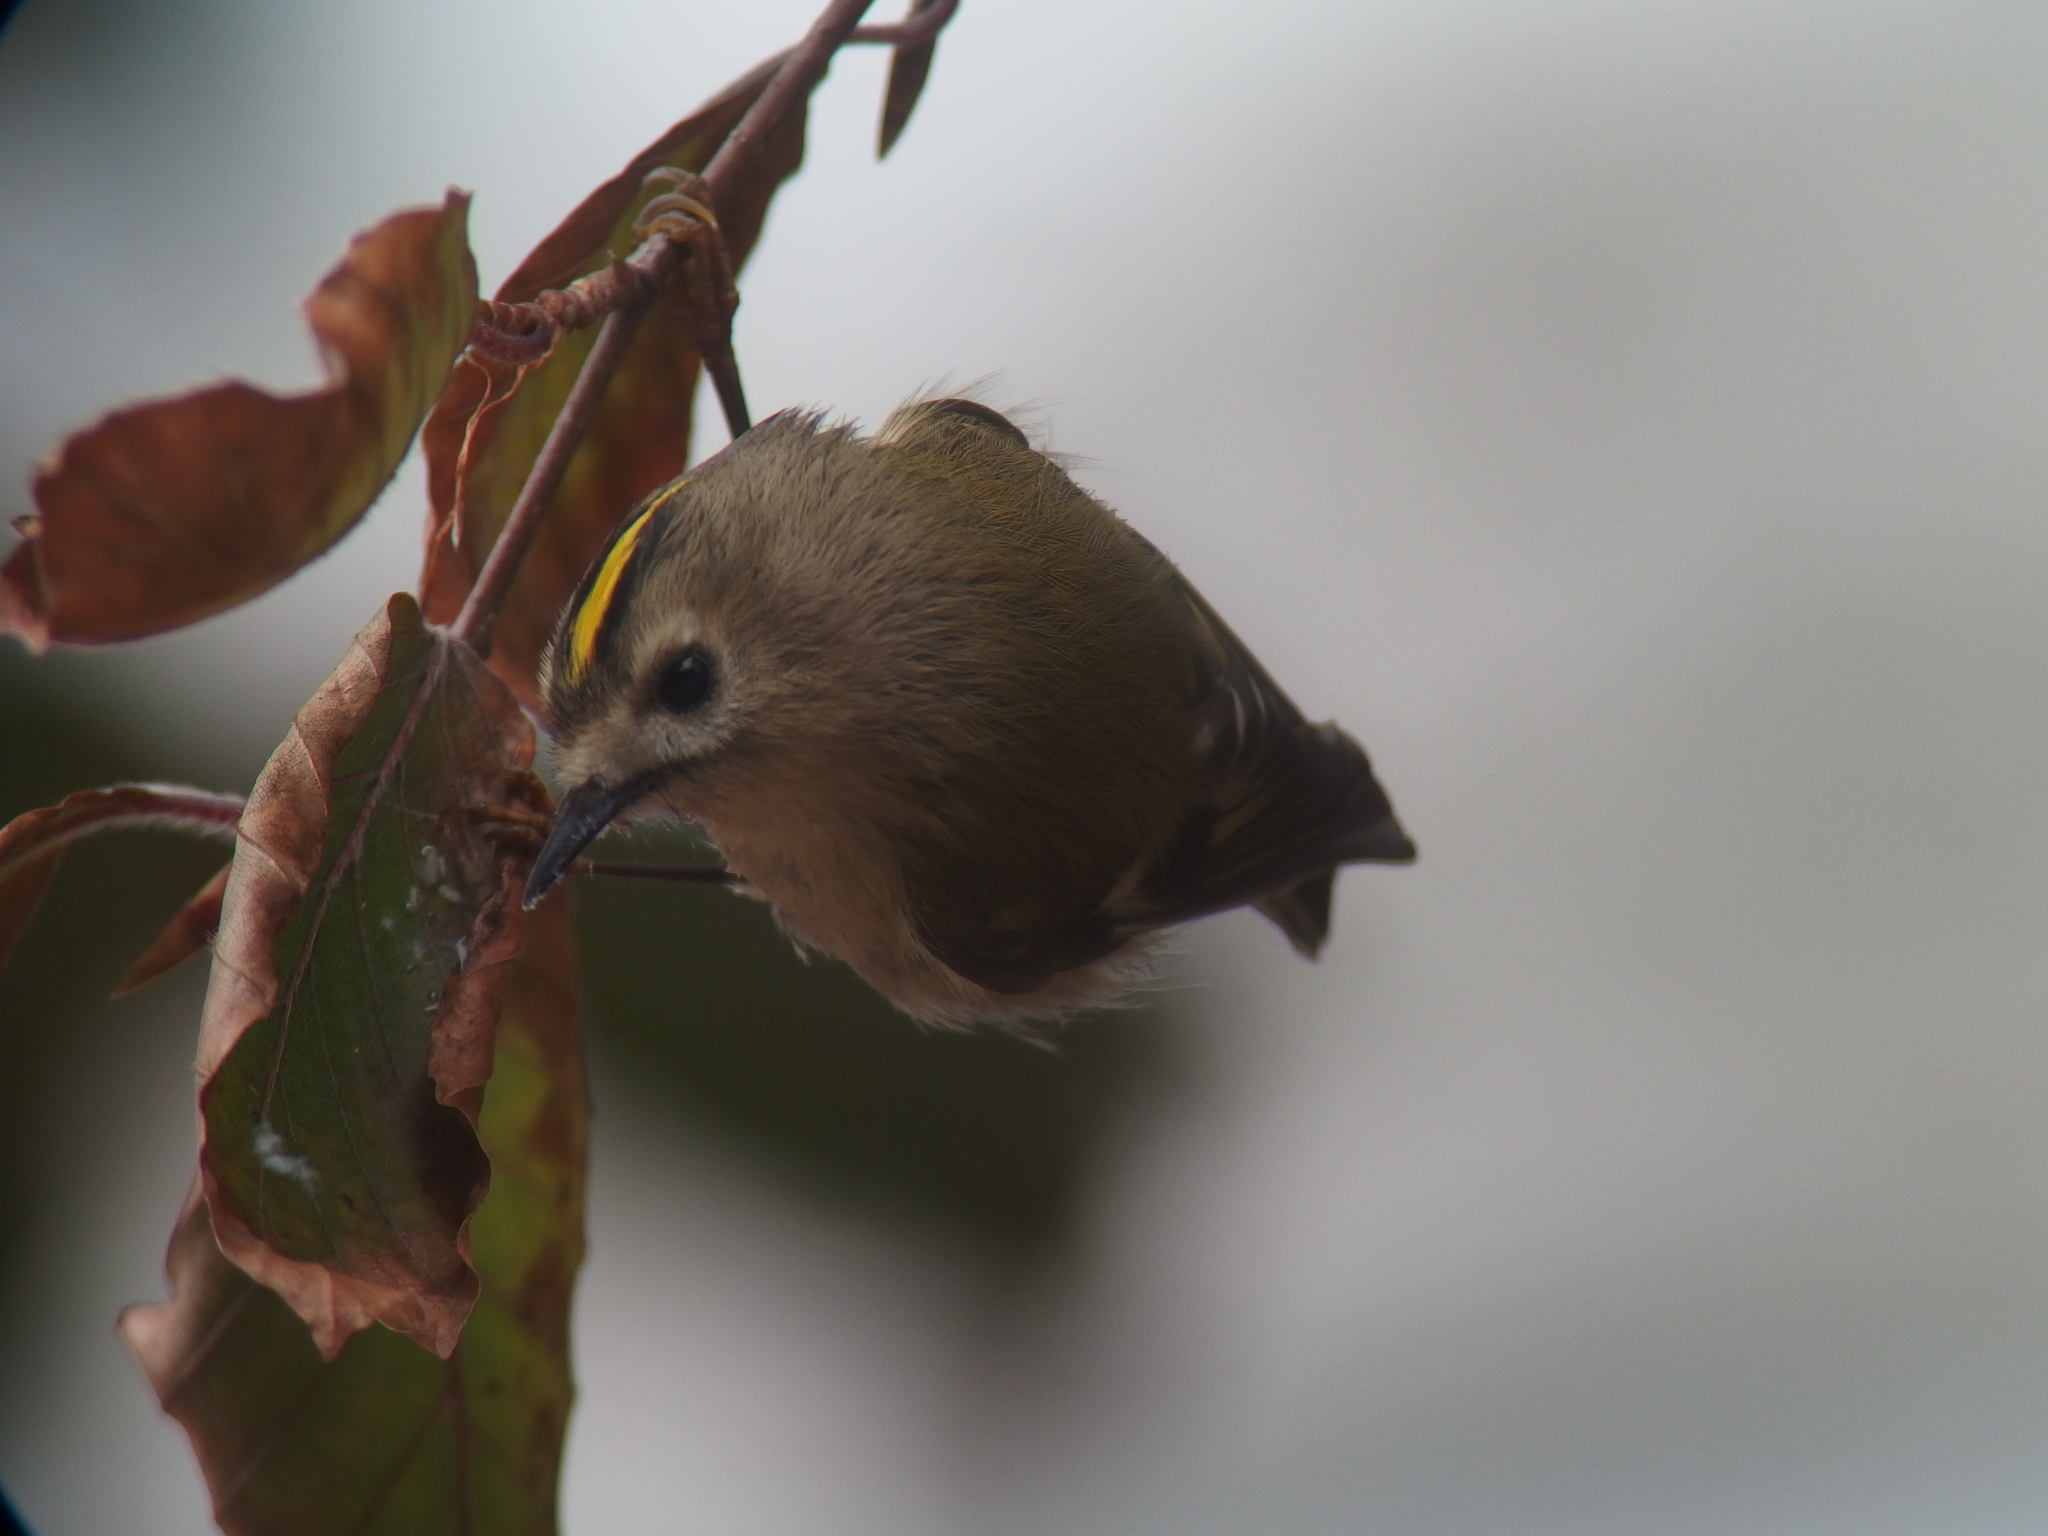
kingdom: Animalia
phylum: Chordata
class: Aves
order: Passeriformes
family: Regulidae
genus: Regulus
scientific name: Regulus regulus
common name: Goldcrest
